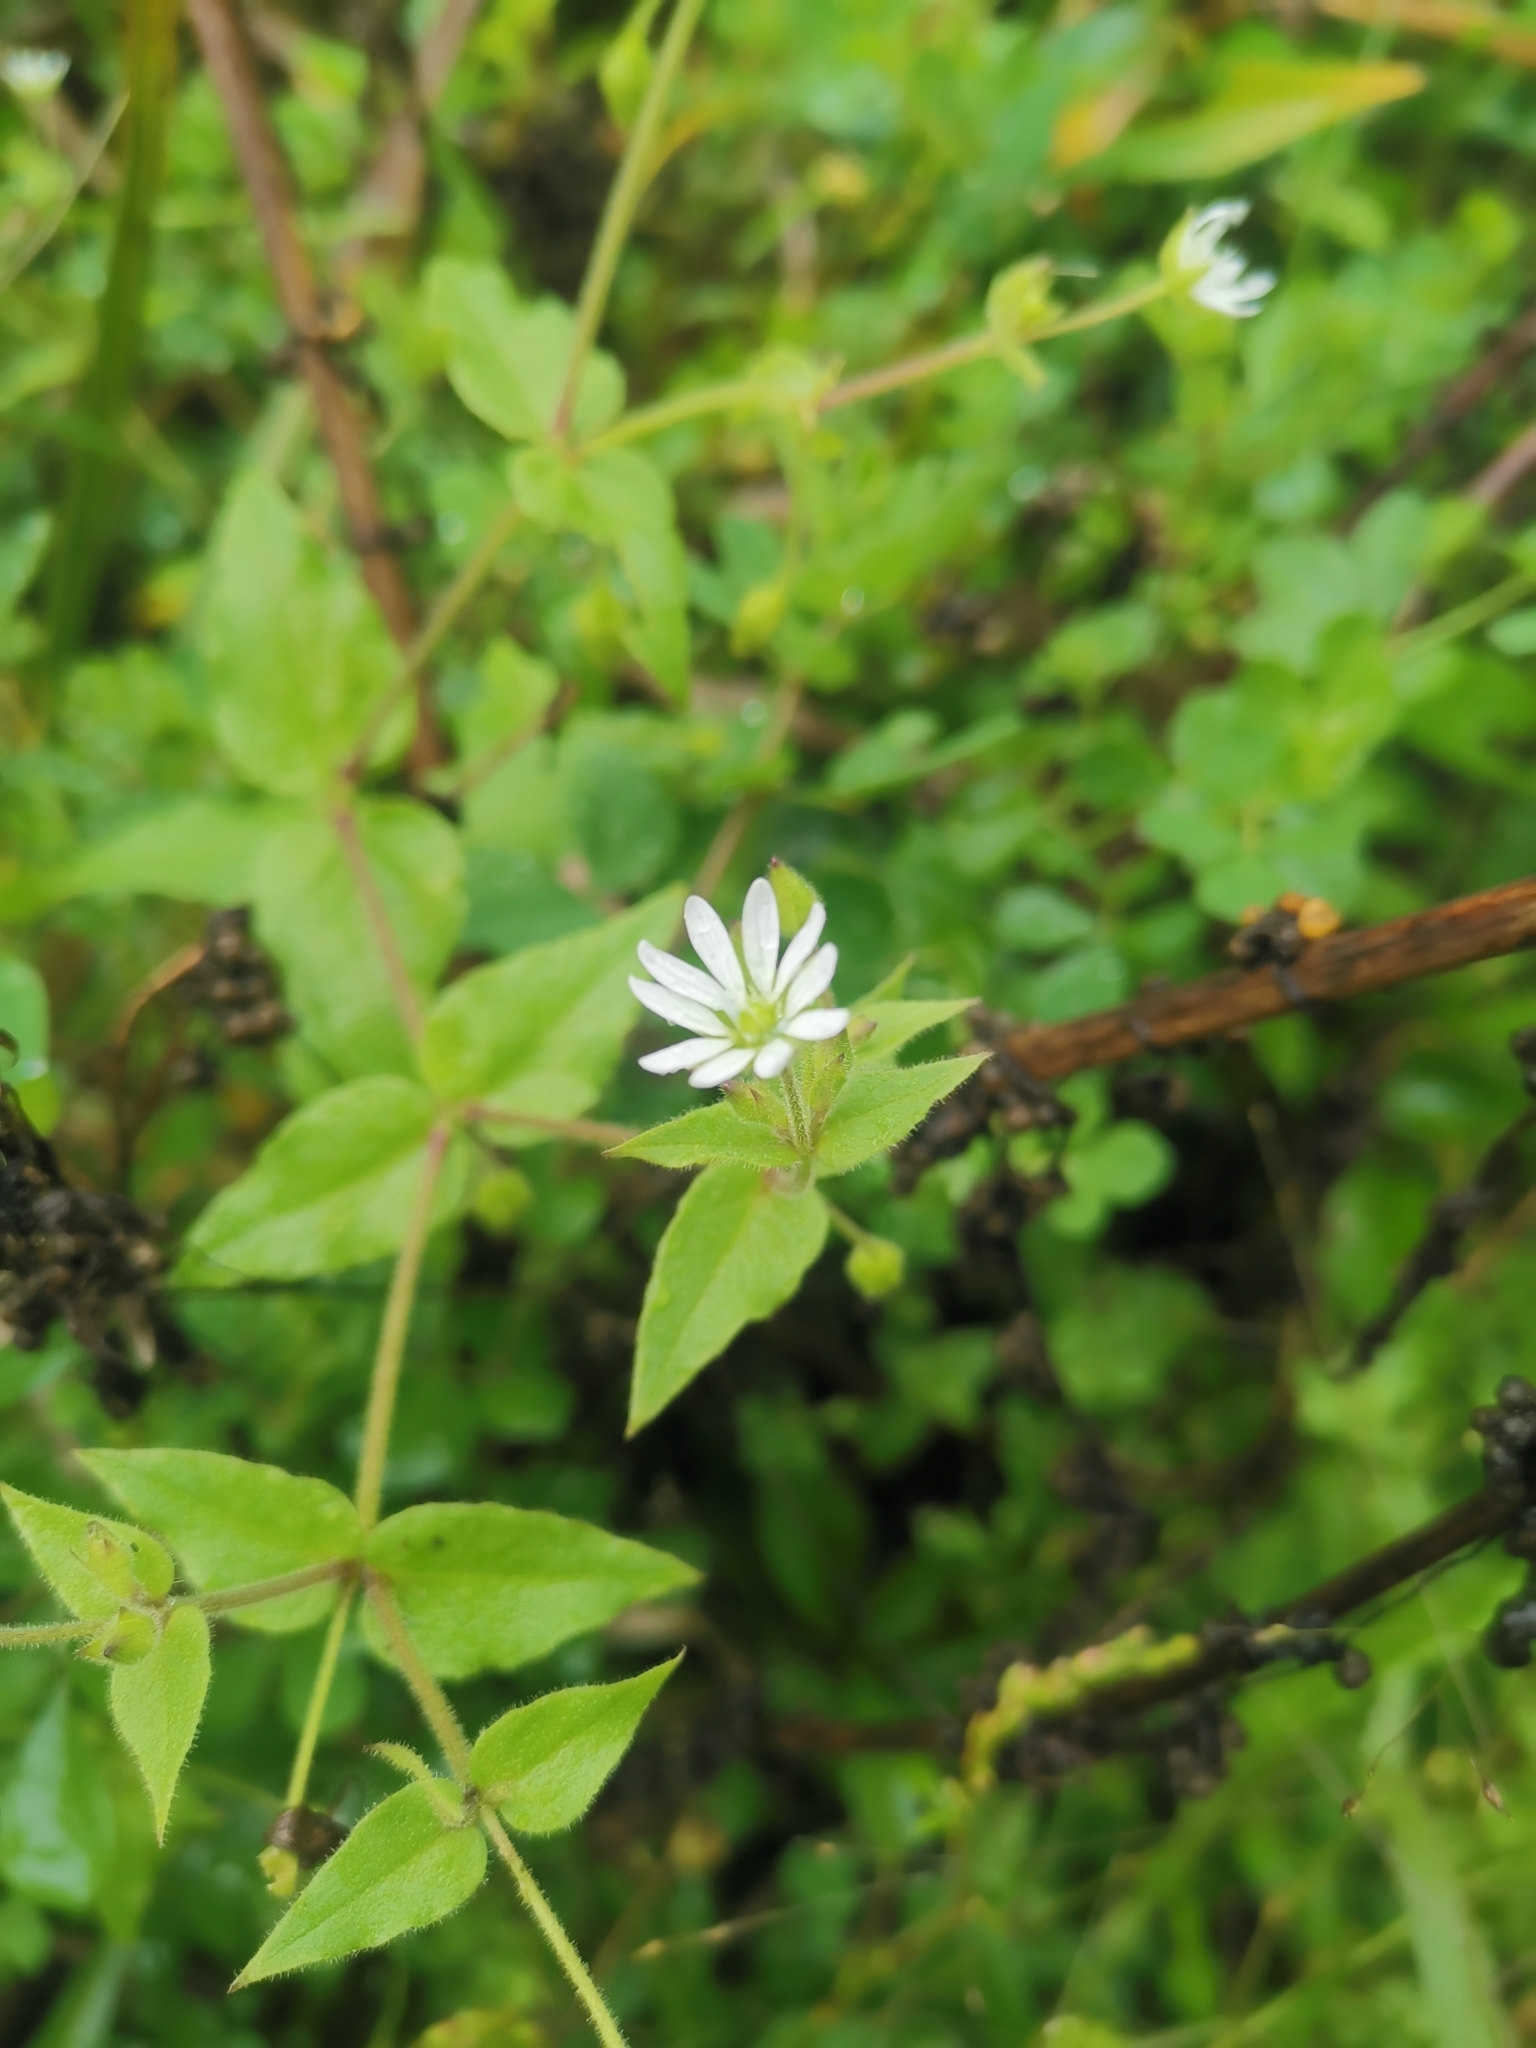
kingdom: Plantae
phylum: Tracheophyta
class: Magnoliopsida
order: Caryophyllales
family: Caryophyllaceae
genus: Stellaria
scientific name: Stellaria aquatica
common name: Water chickweed
